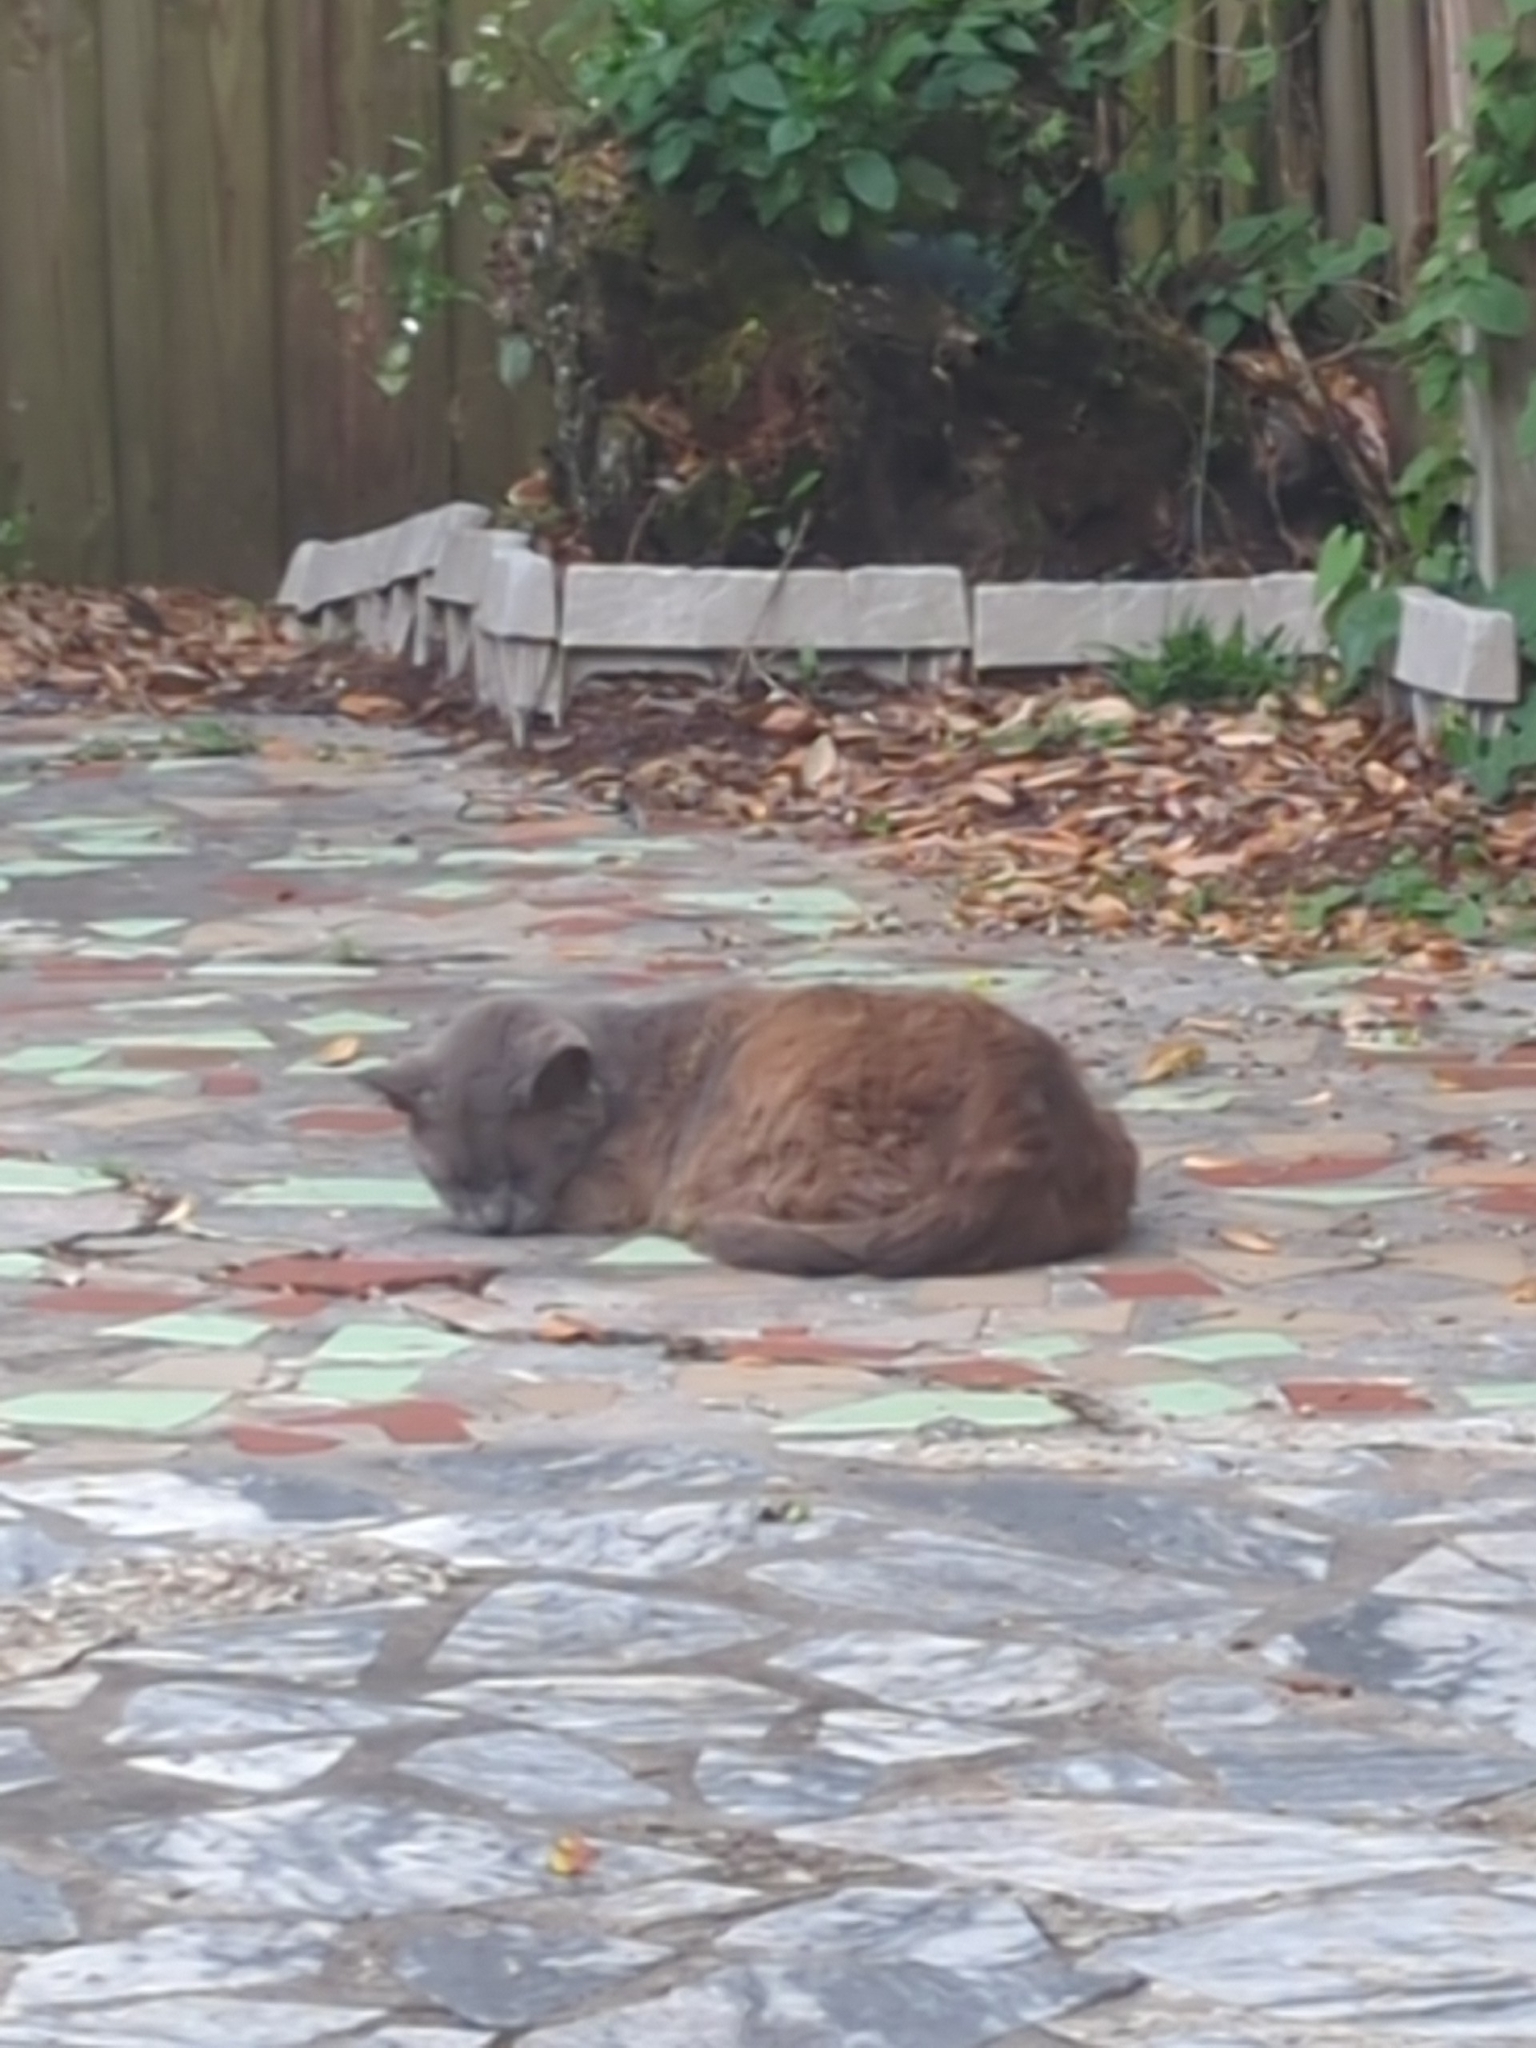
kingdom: Animalia
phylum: Chordata
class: Mammalia
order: Carnivora
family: Felidae
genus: Felis
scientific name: Felis catus
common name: Domestic cat
